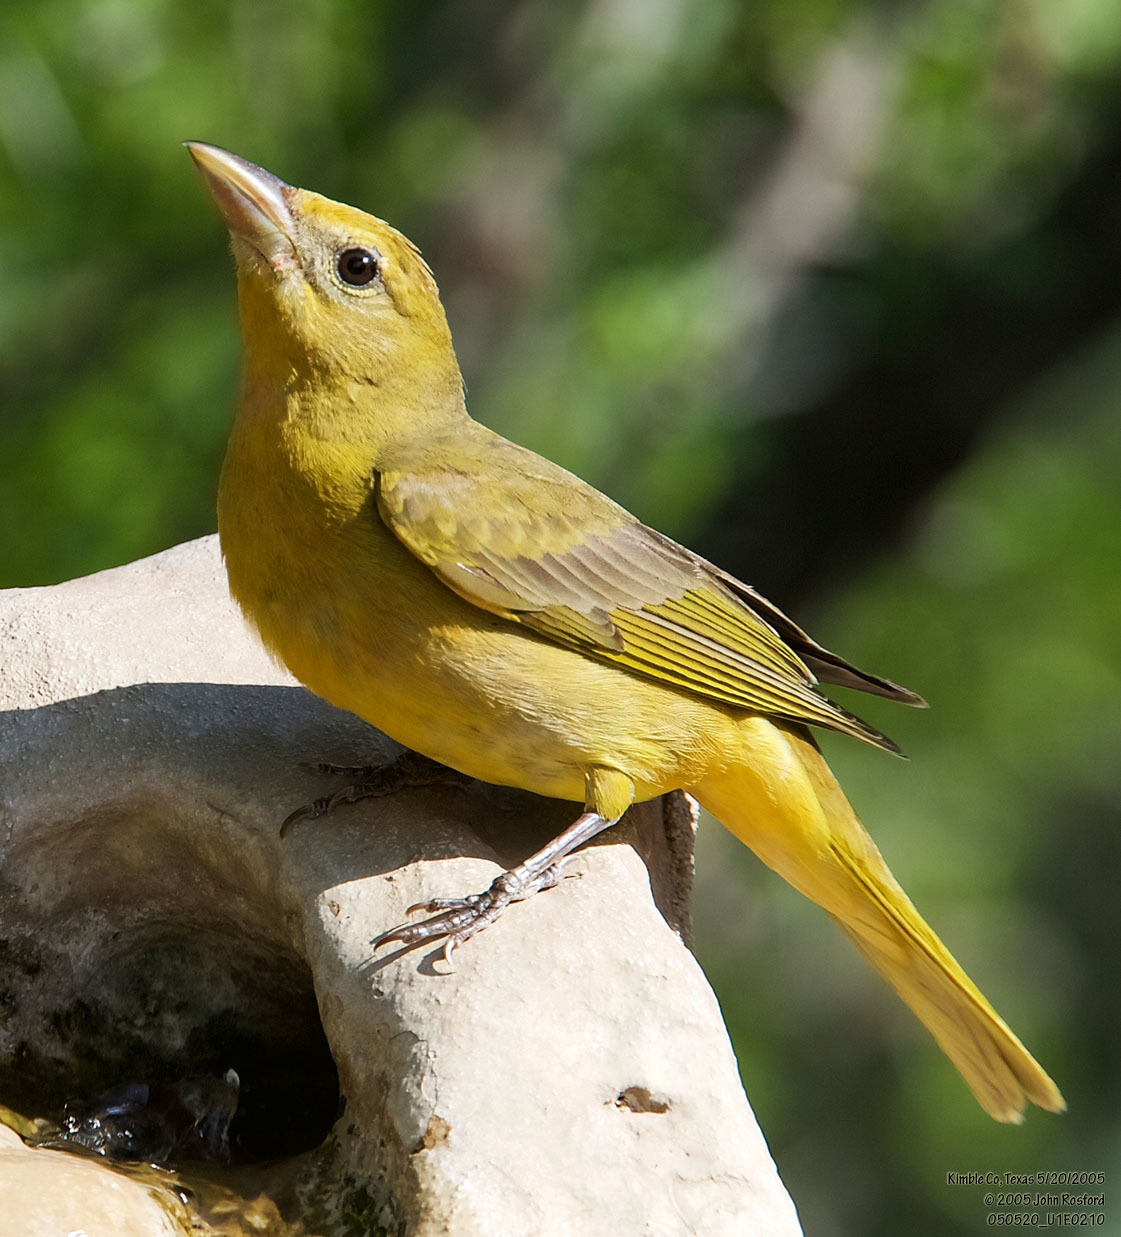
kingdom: Animalia
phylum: Chordata
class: Aves
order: Passeriformes
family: Cardinalidae
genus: Piranga
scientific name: Piranga rubra
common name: Summer tanager
